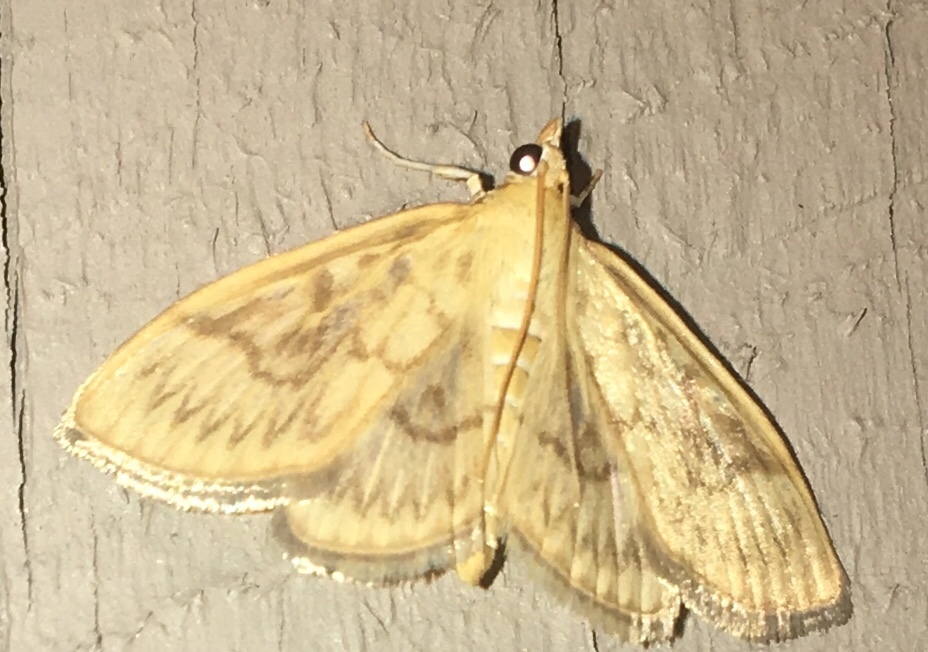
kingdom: Animalia
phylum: Arthropoda
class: Insecta
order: Lepidoptera
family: Crambidae
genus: Crocidophora
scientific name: Crocidophora serratissimalis
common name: Saw-toothed crocidophora moth
